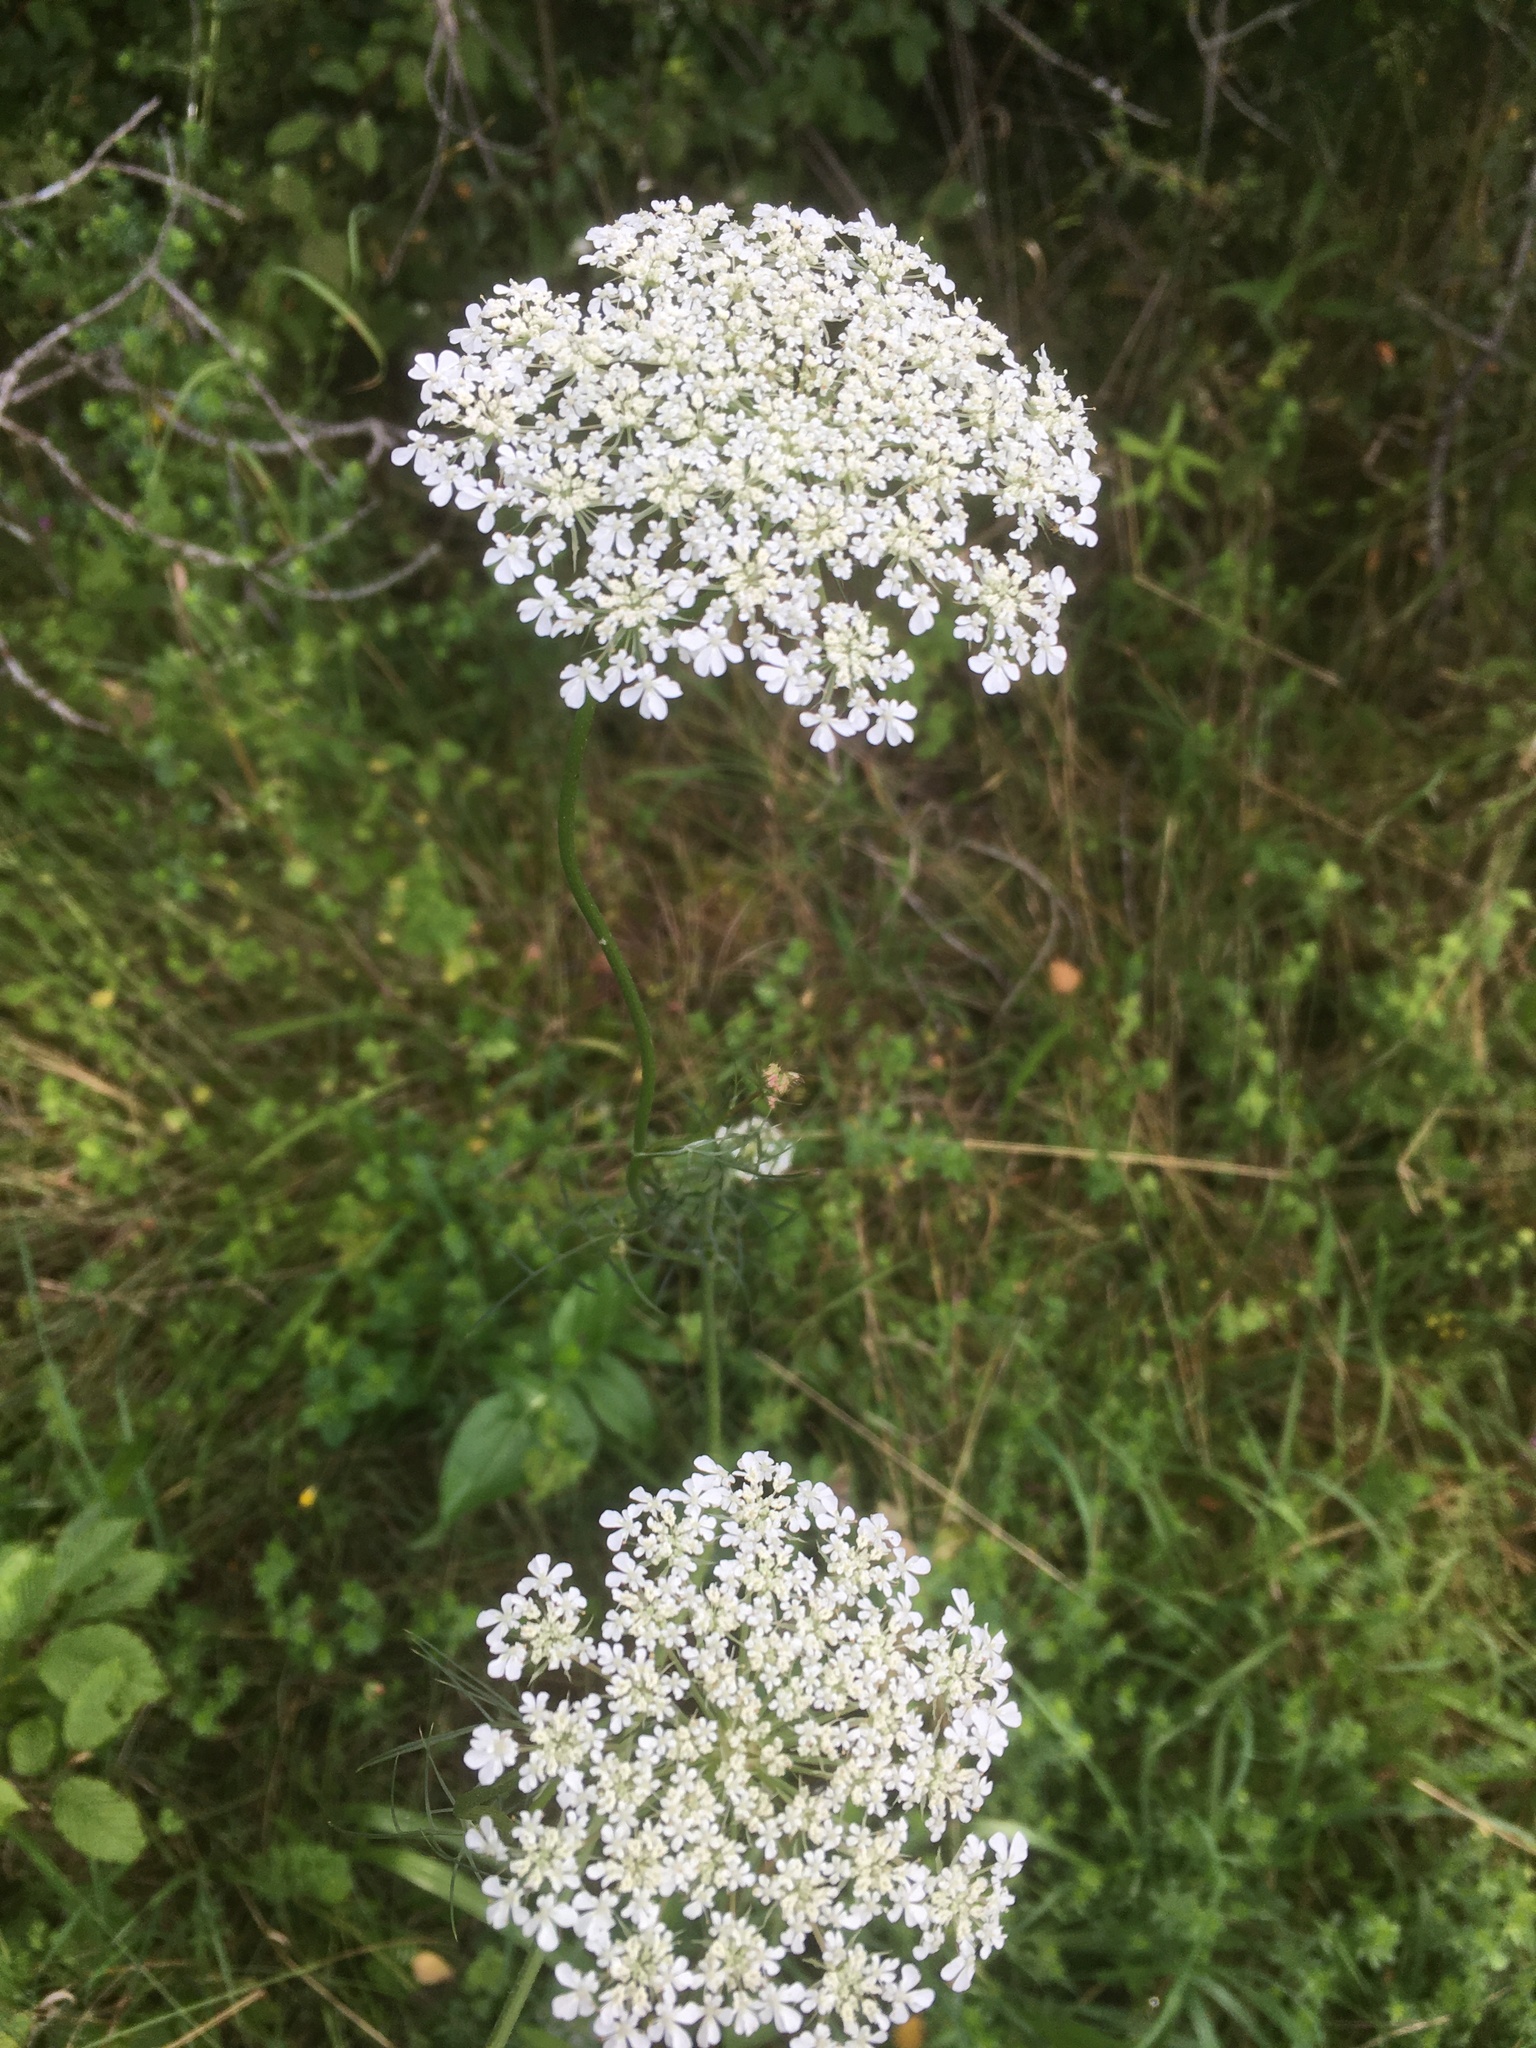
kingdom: Plantae
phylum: Tracheophyta
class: Magnoliopsida
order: Apiales
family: Apiaceae
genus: Daucus
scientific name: Daucus carota
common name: Wild carrot
